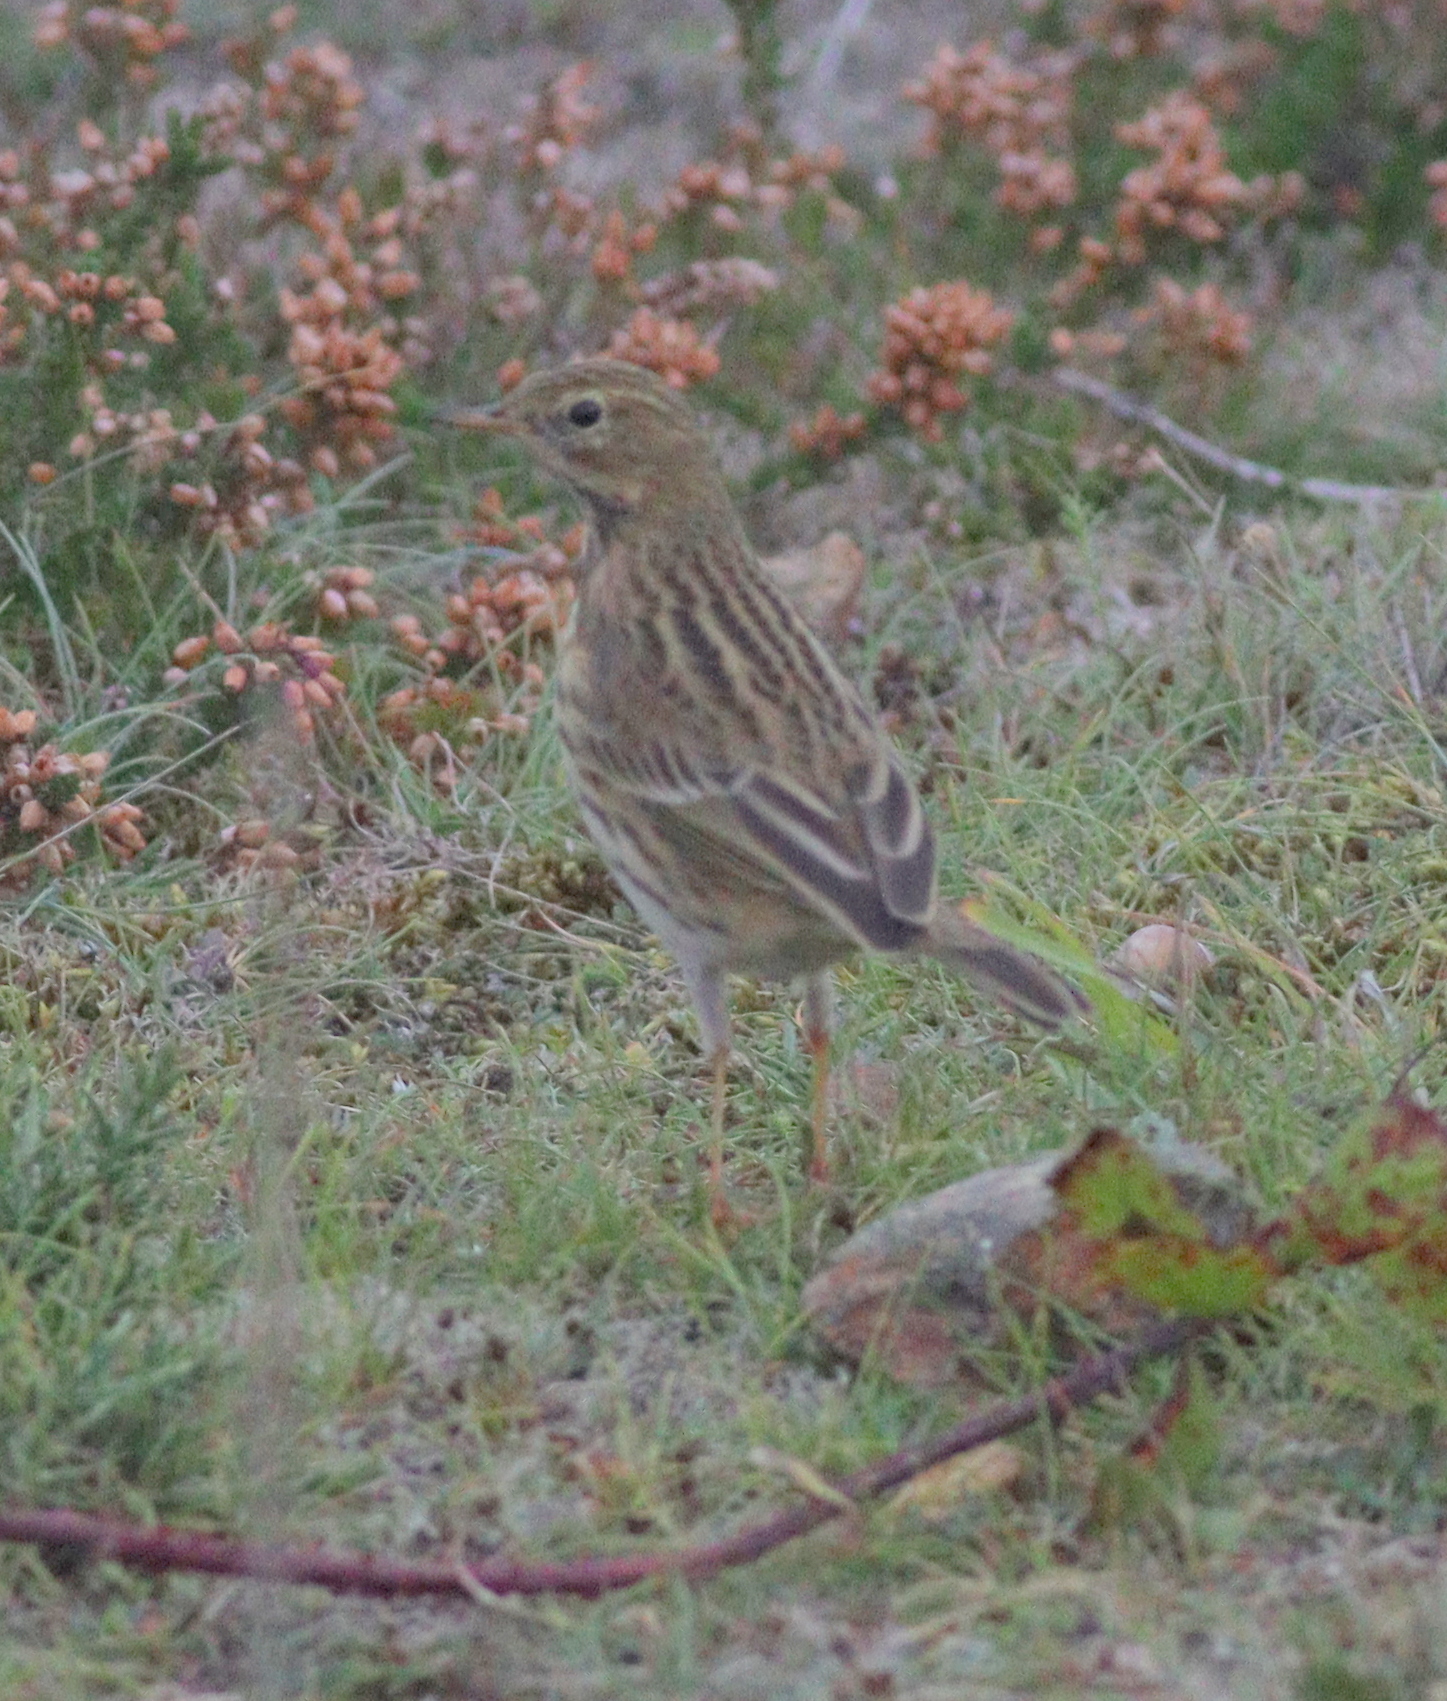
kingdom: Animalia
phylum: Chordata
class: Aves
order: Passeriformes
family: Motacillidae
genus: Anthus
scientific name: Anthus pratensis
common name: Meadow pipit
